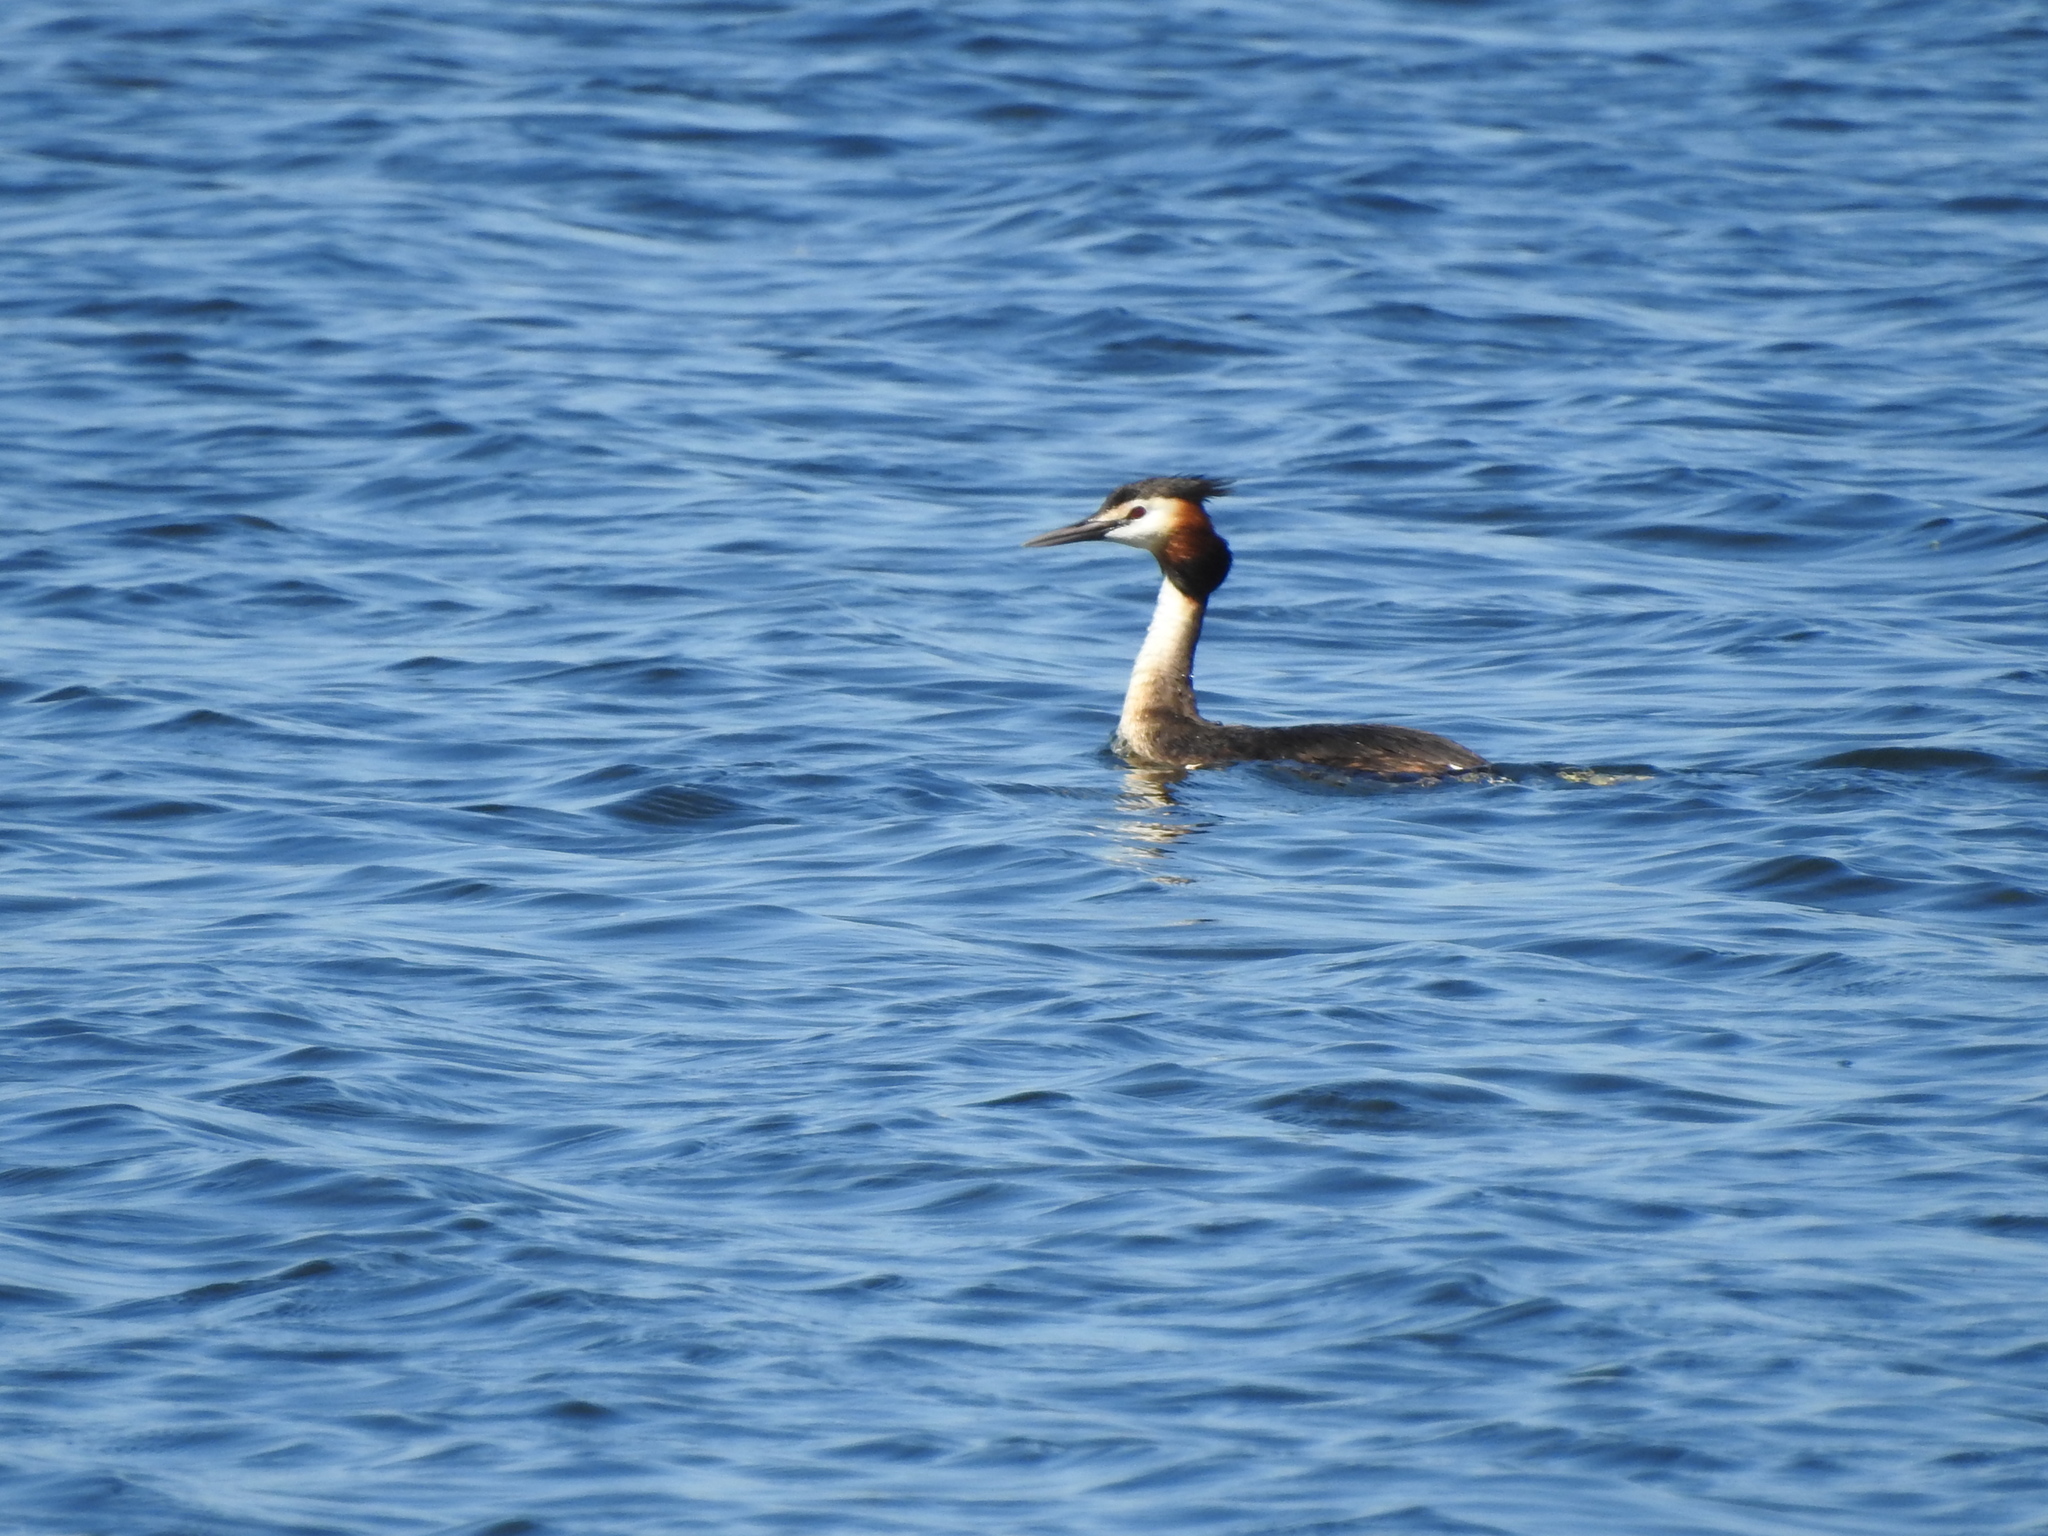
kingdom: Animalia
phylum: Chordata
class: Aves
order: Podicipediformes
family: Podicipedidae
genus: Podiceps
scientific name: Podiceps cristatus
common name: Great crested grebe
